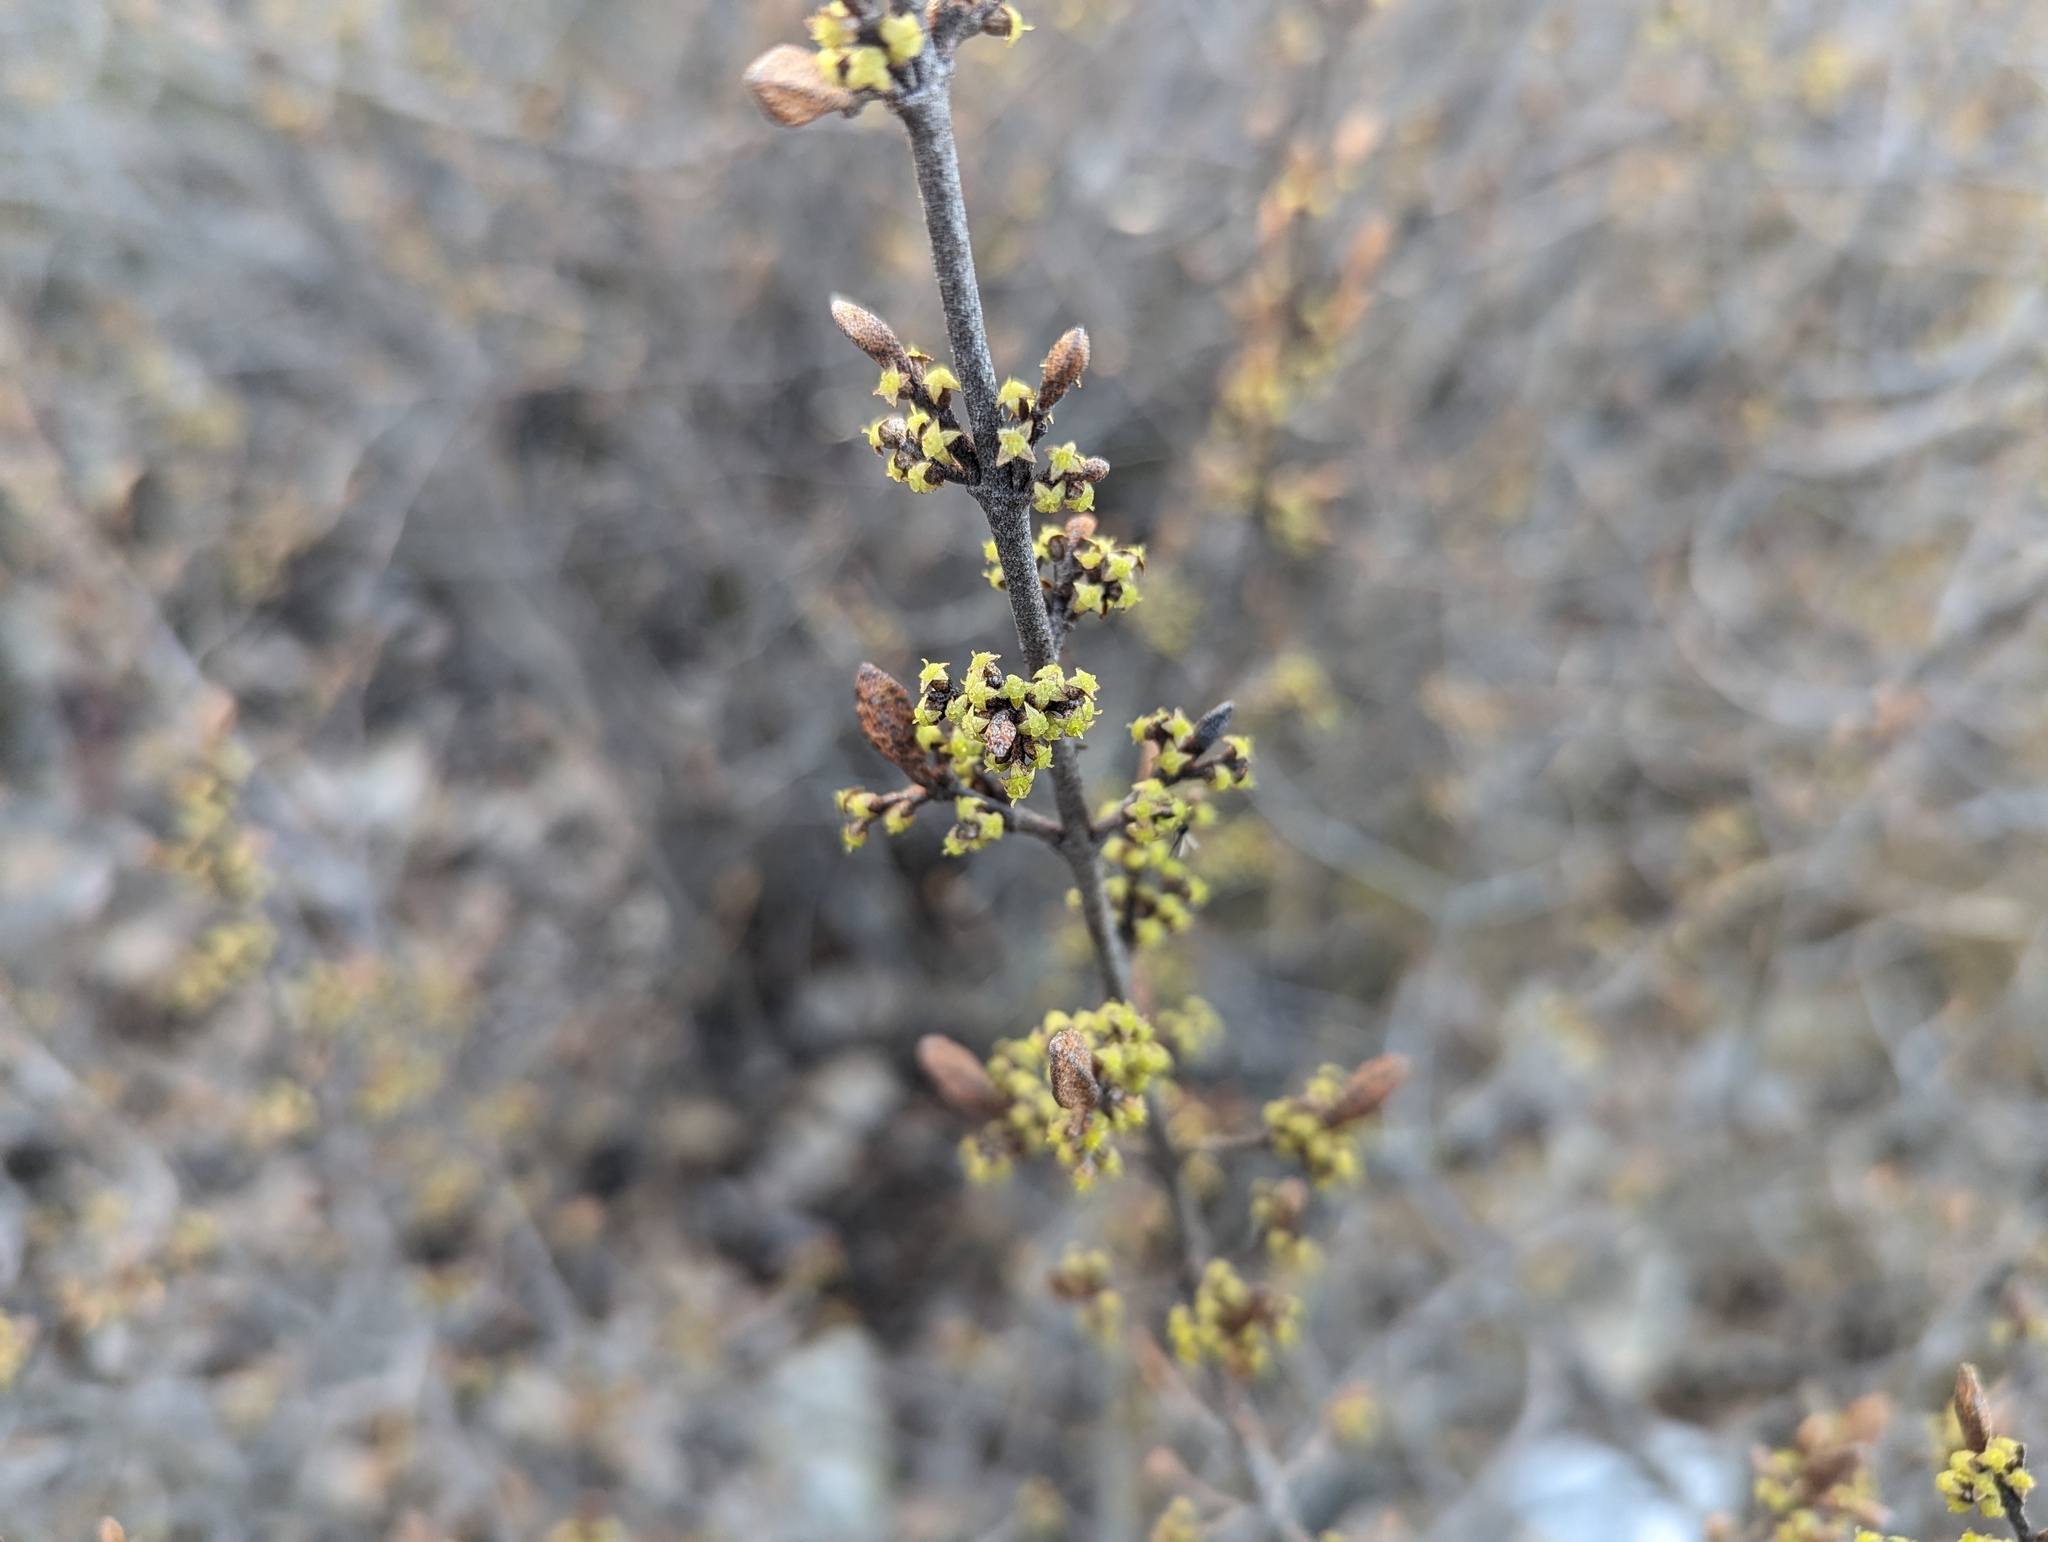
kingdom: Plantae
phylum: Tracheophyta
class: Magnoliopsida
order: Rosales
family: Elaeagnaceae
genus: Shepherdia
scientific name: Shepherdia canadensis
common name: Soapberry
